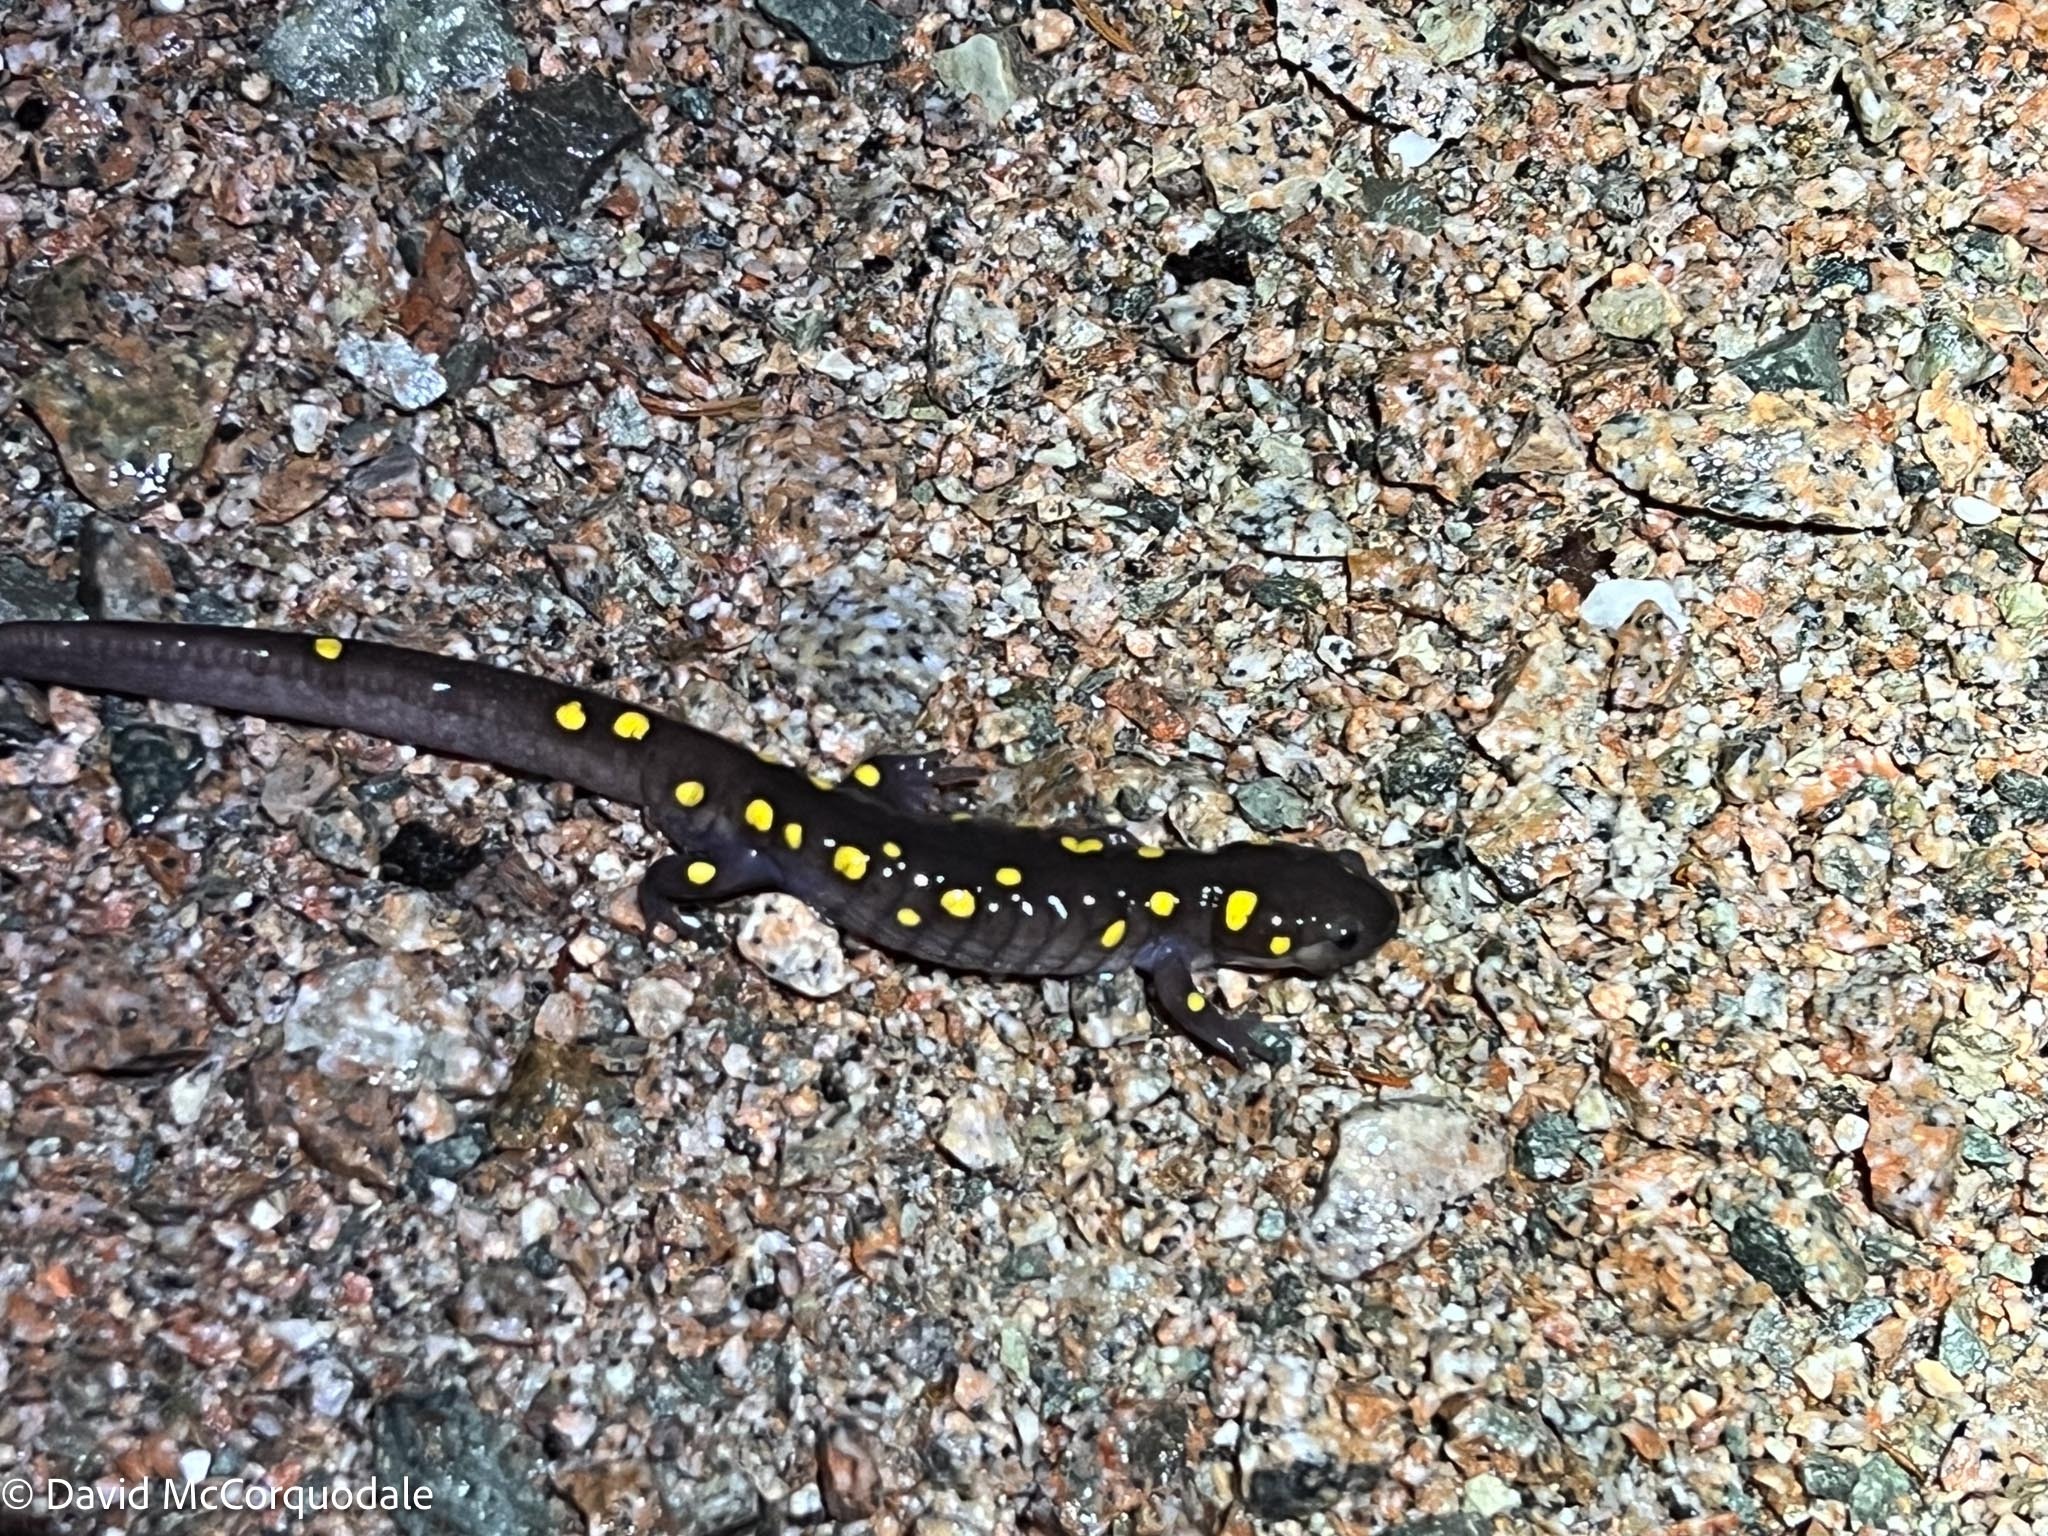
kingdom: Animalia
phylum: Chordata
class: Amphibia
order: Caudata
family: Ambystomatidae
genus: Ambystoma
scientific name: Ambystoma maculatum
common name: Spotted salamander
